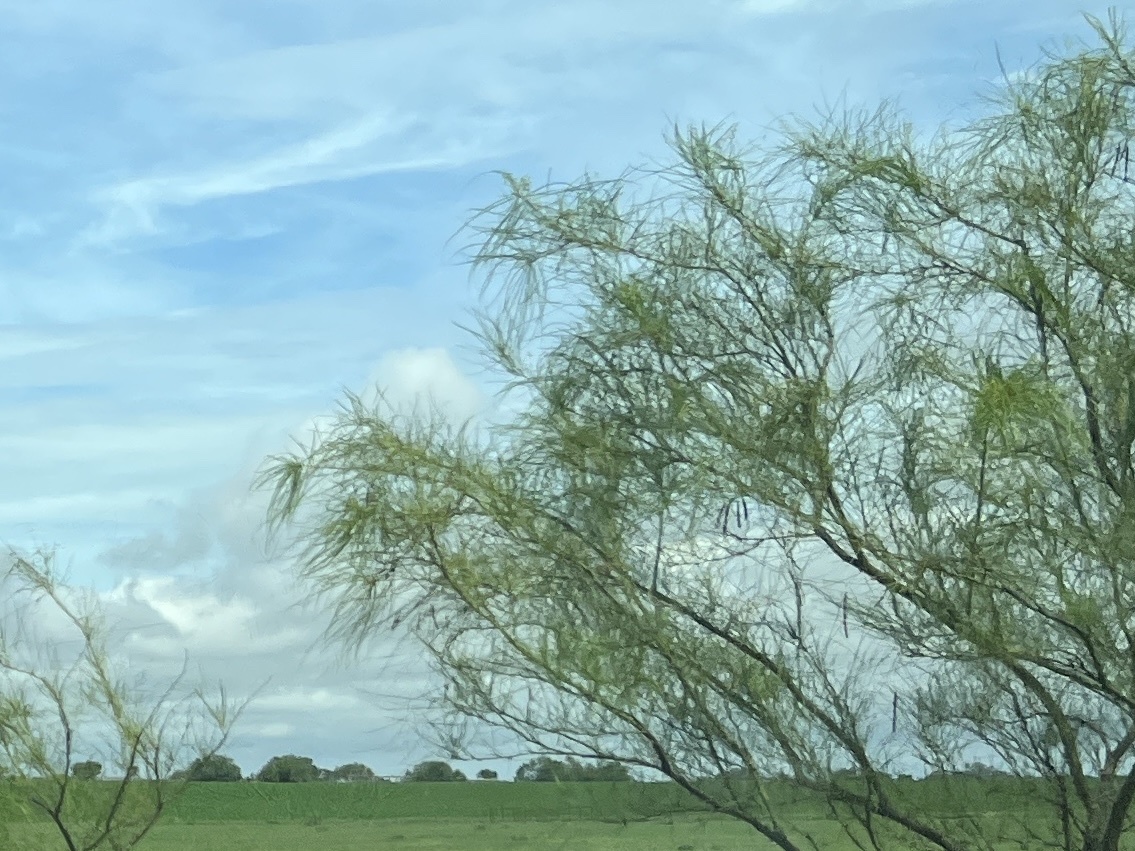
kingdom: Plantae
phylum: Tracheophyta
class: Magnoliopsida
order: Fabales
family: Fabaceae
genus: Parkinsonia
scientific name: Parkinsonia aculeata
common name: Jerusalem thorn
